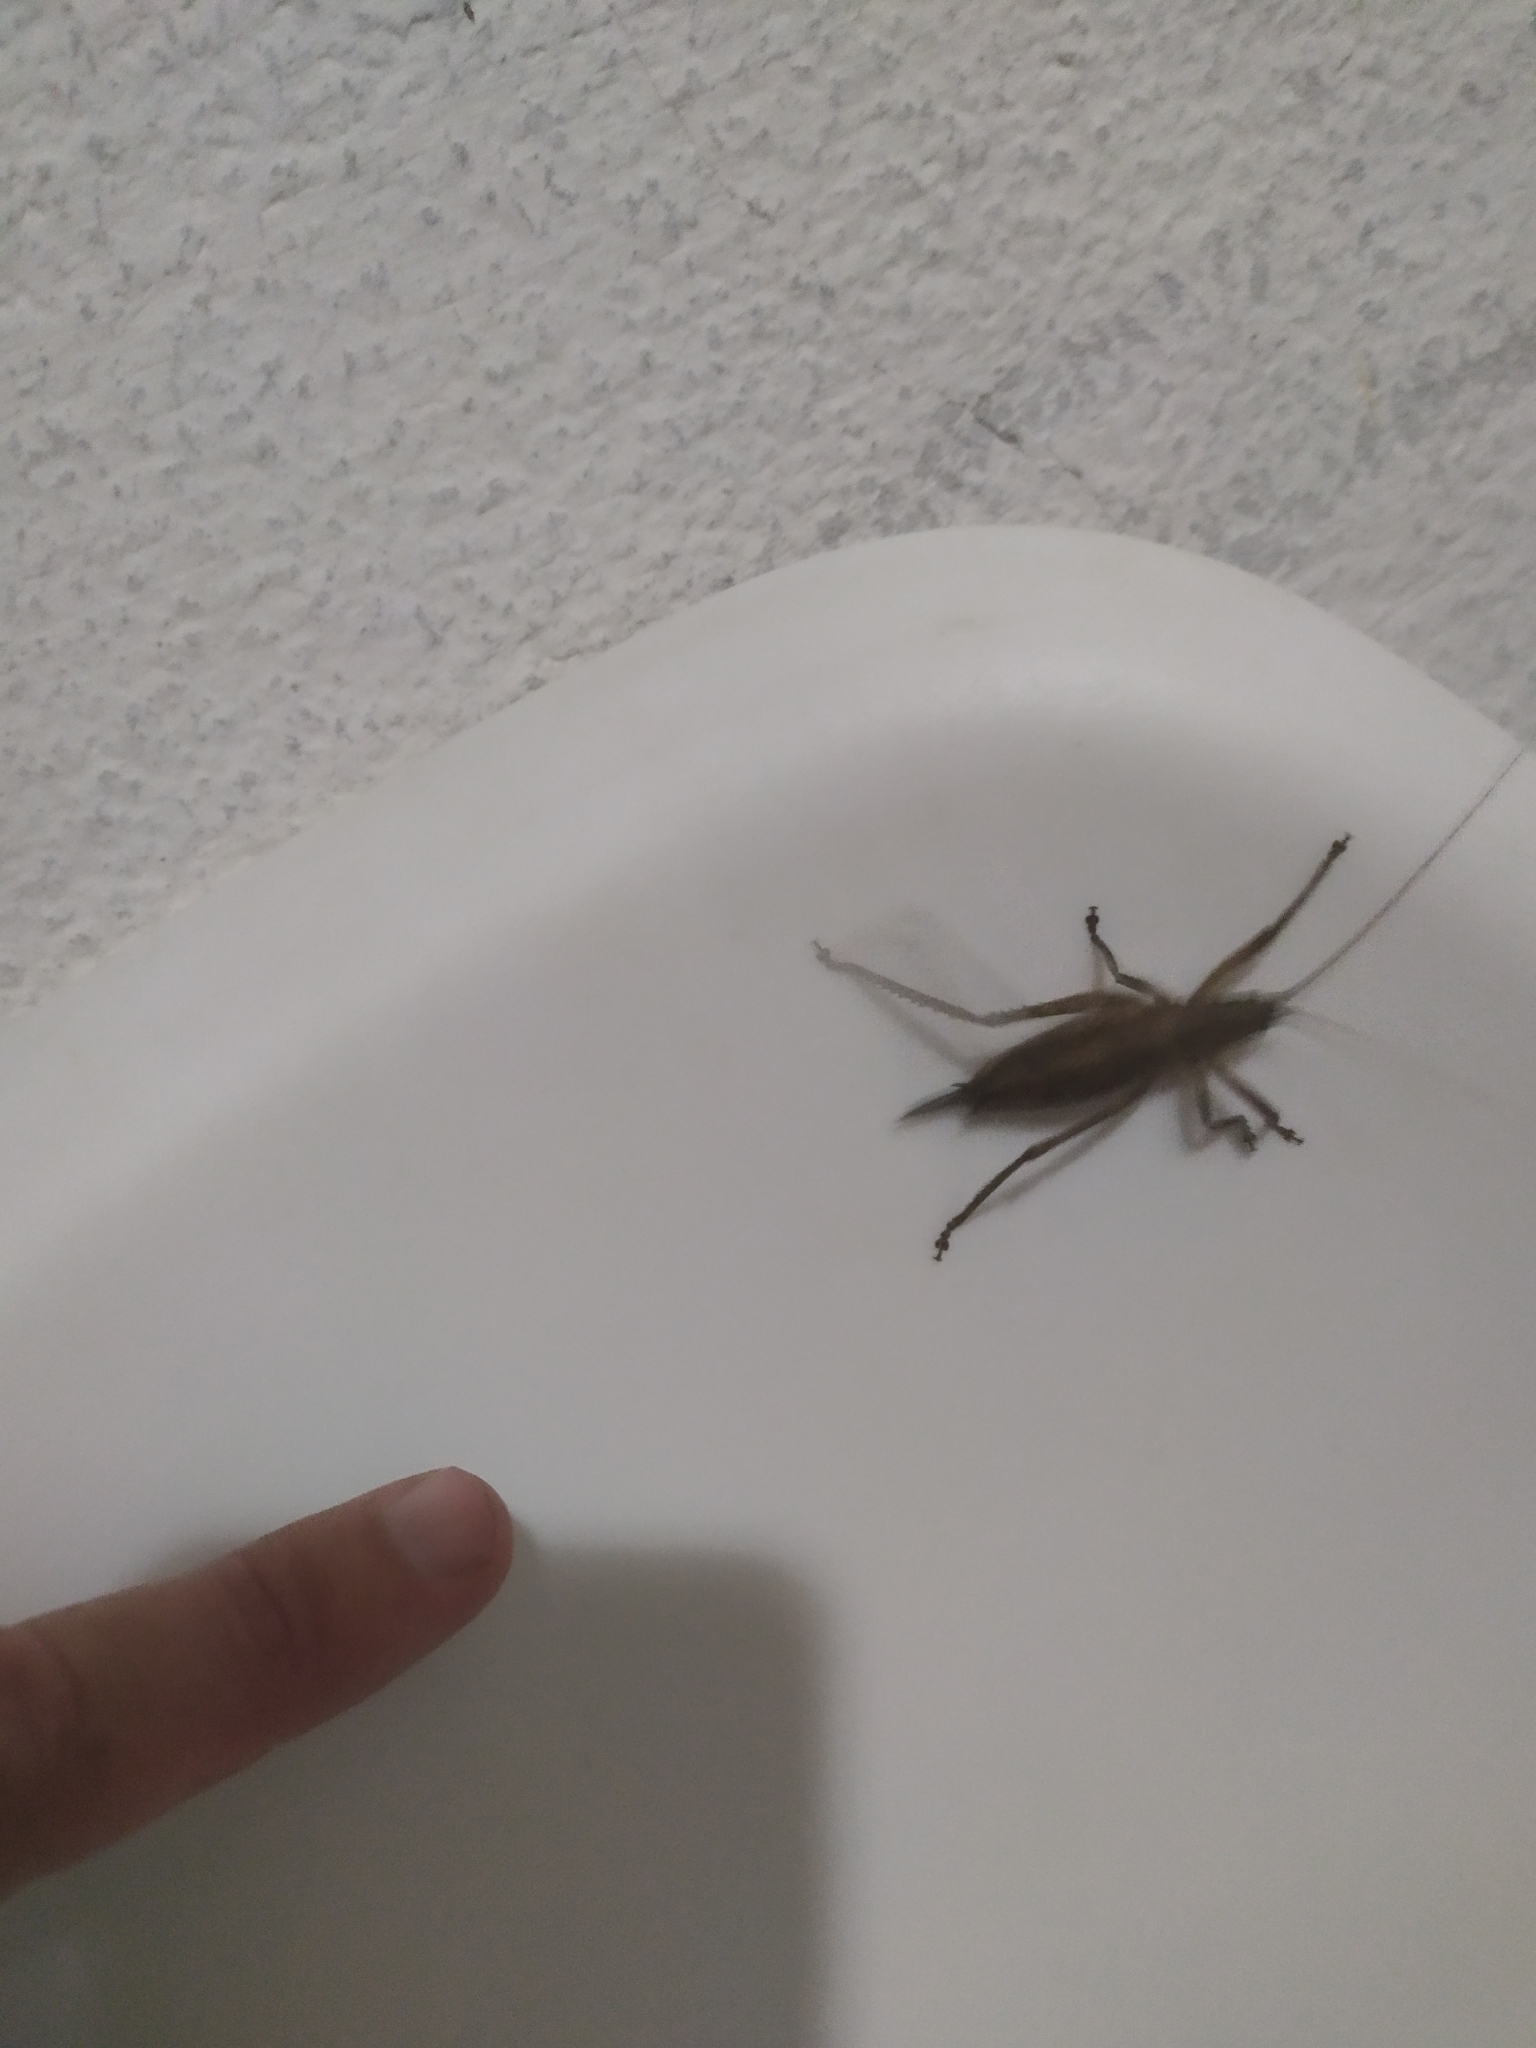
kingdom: Animalia
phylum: Arthropoda
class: Insecta
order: Orthoptera
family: Tettigoniidae
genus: Dasyscelus
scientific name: Dasyscelus normalis
